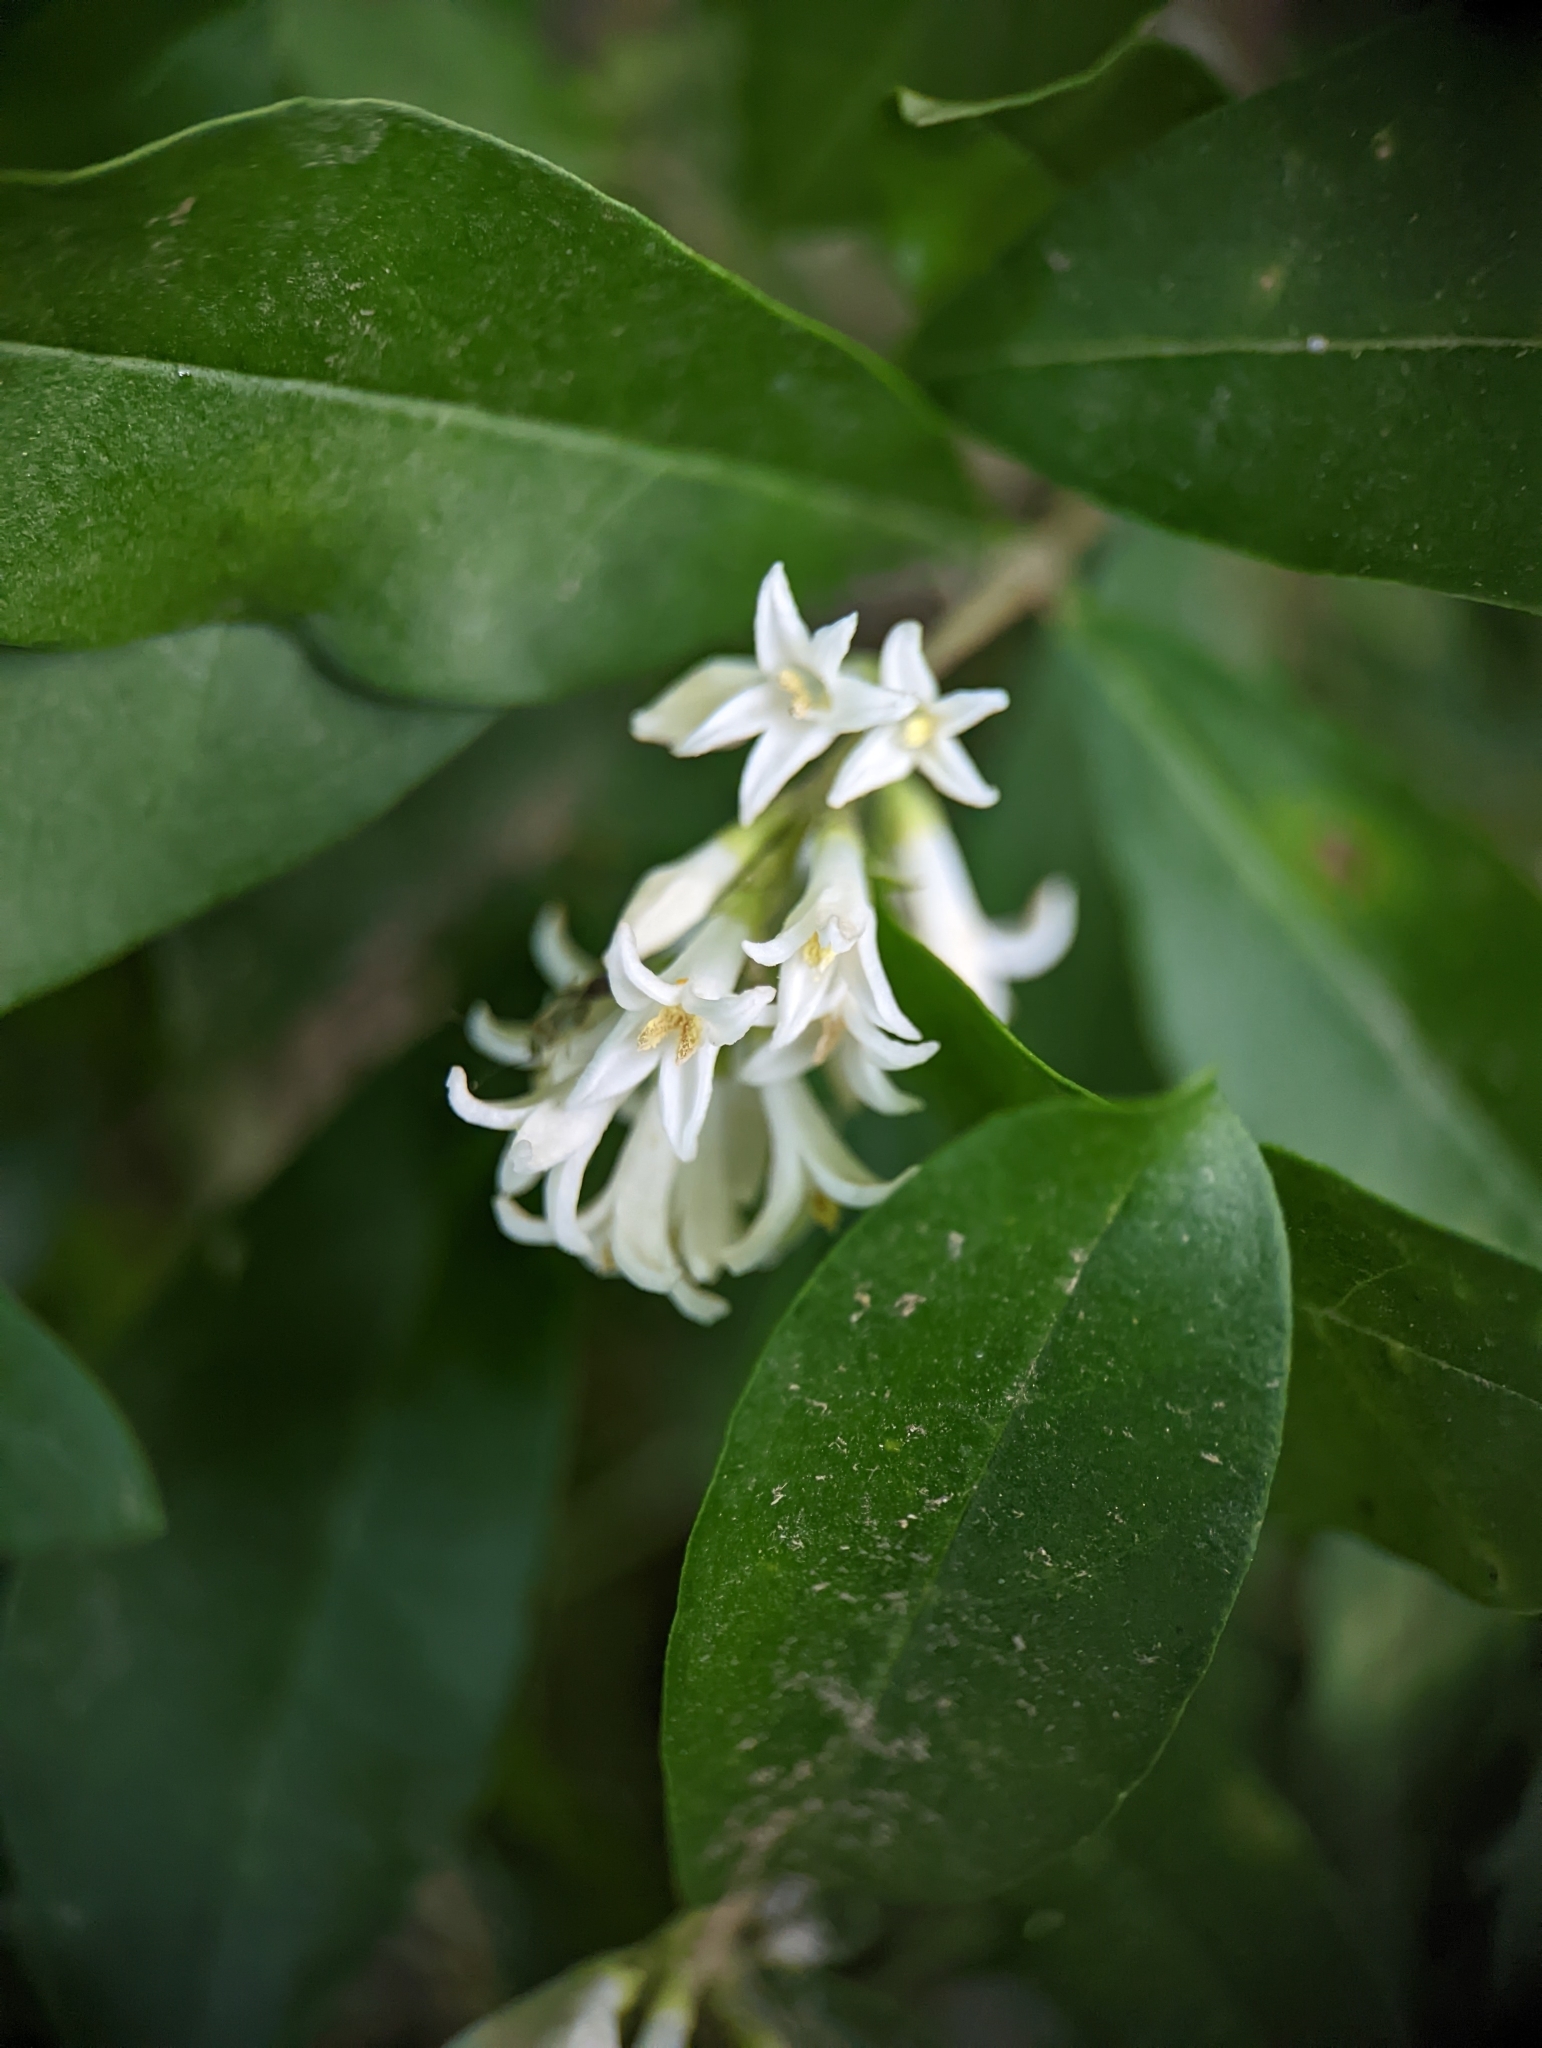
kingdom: Plantae
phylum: Tracheophyta
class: Magnoliopsida
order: Lamiales
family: Oleaceae
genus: Ligustrum
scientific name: Ligustrum obtusifolium
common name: Border privet
